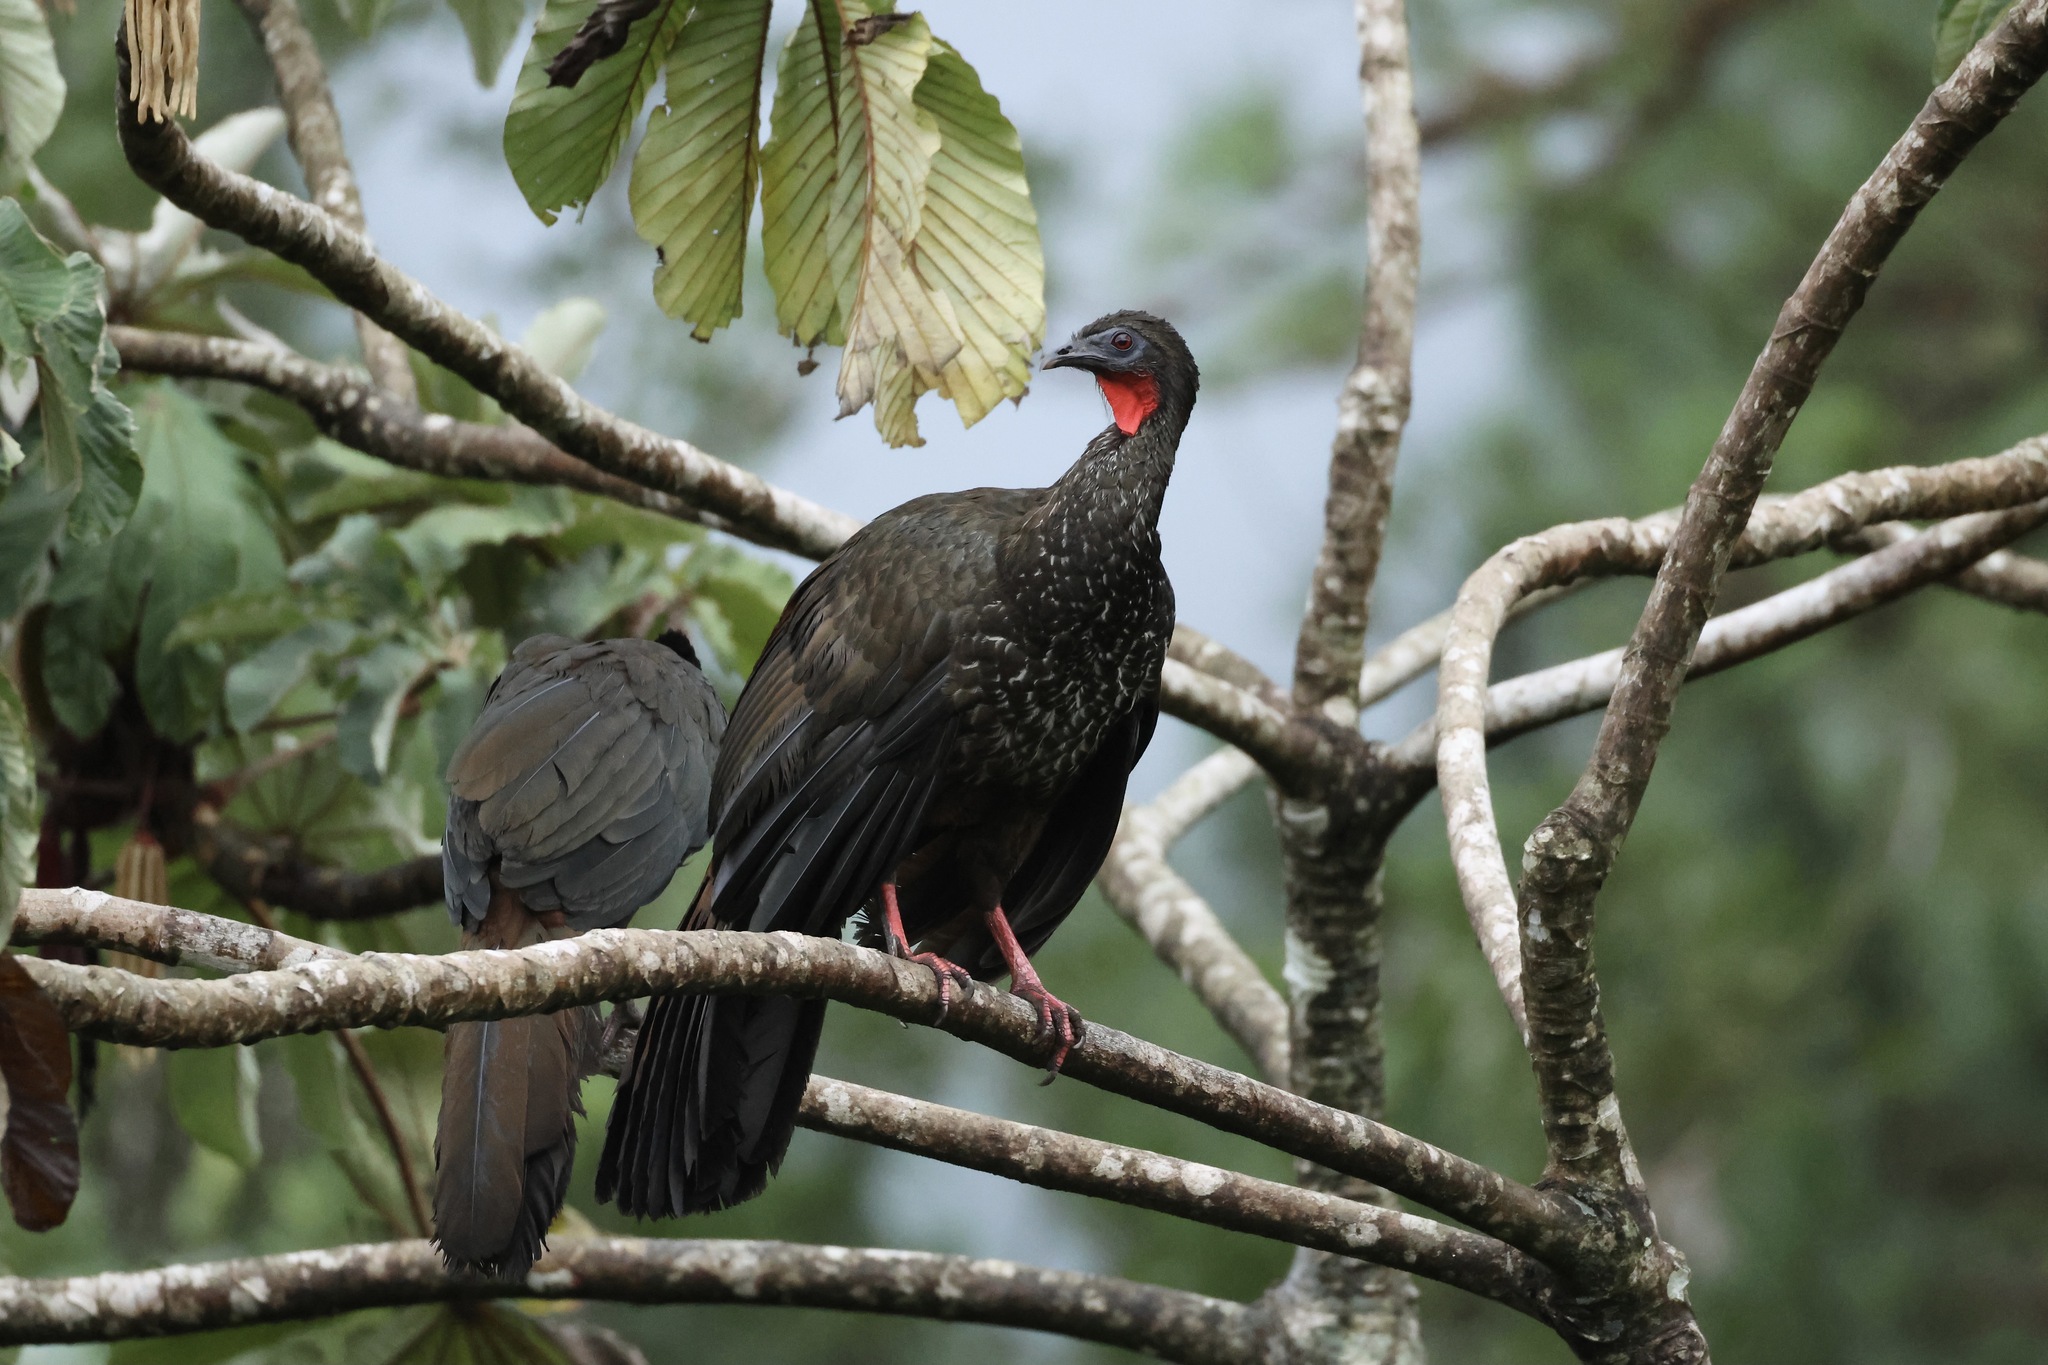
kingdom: Animalia
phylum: Chordata
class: Aves
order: Galliformes
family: Cracidae
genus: Penelope
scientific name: Penelope purpurascens
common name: Crested guan
